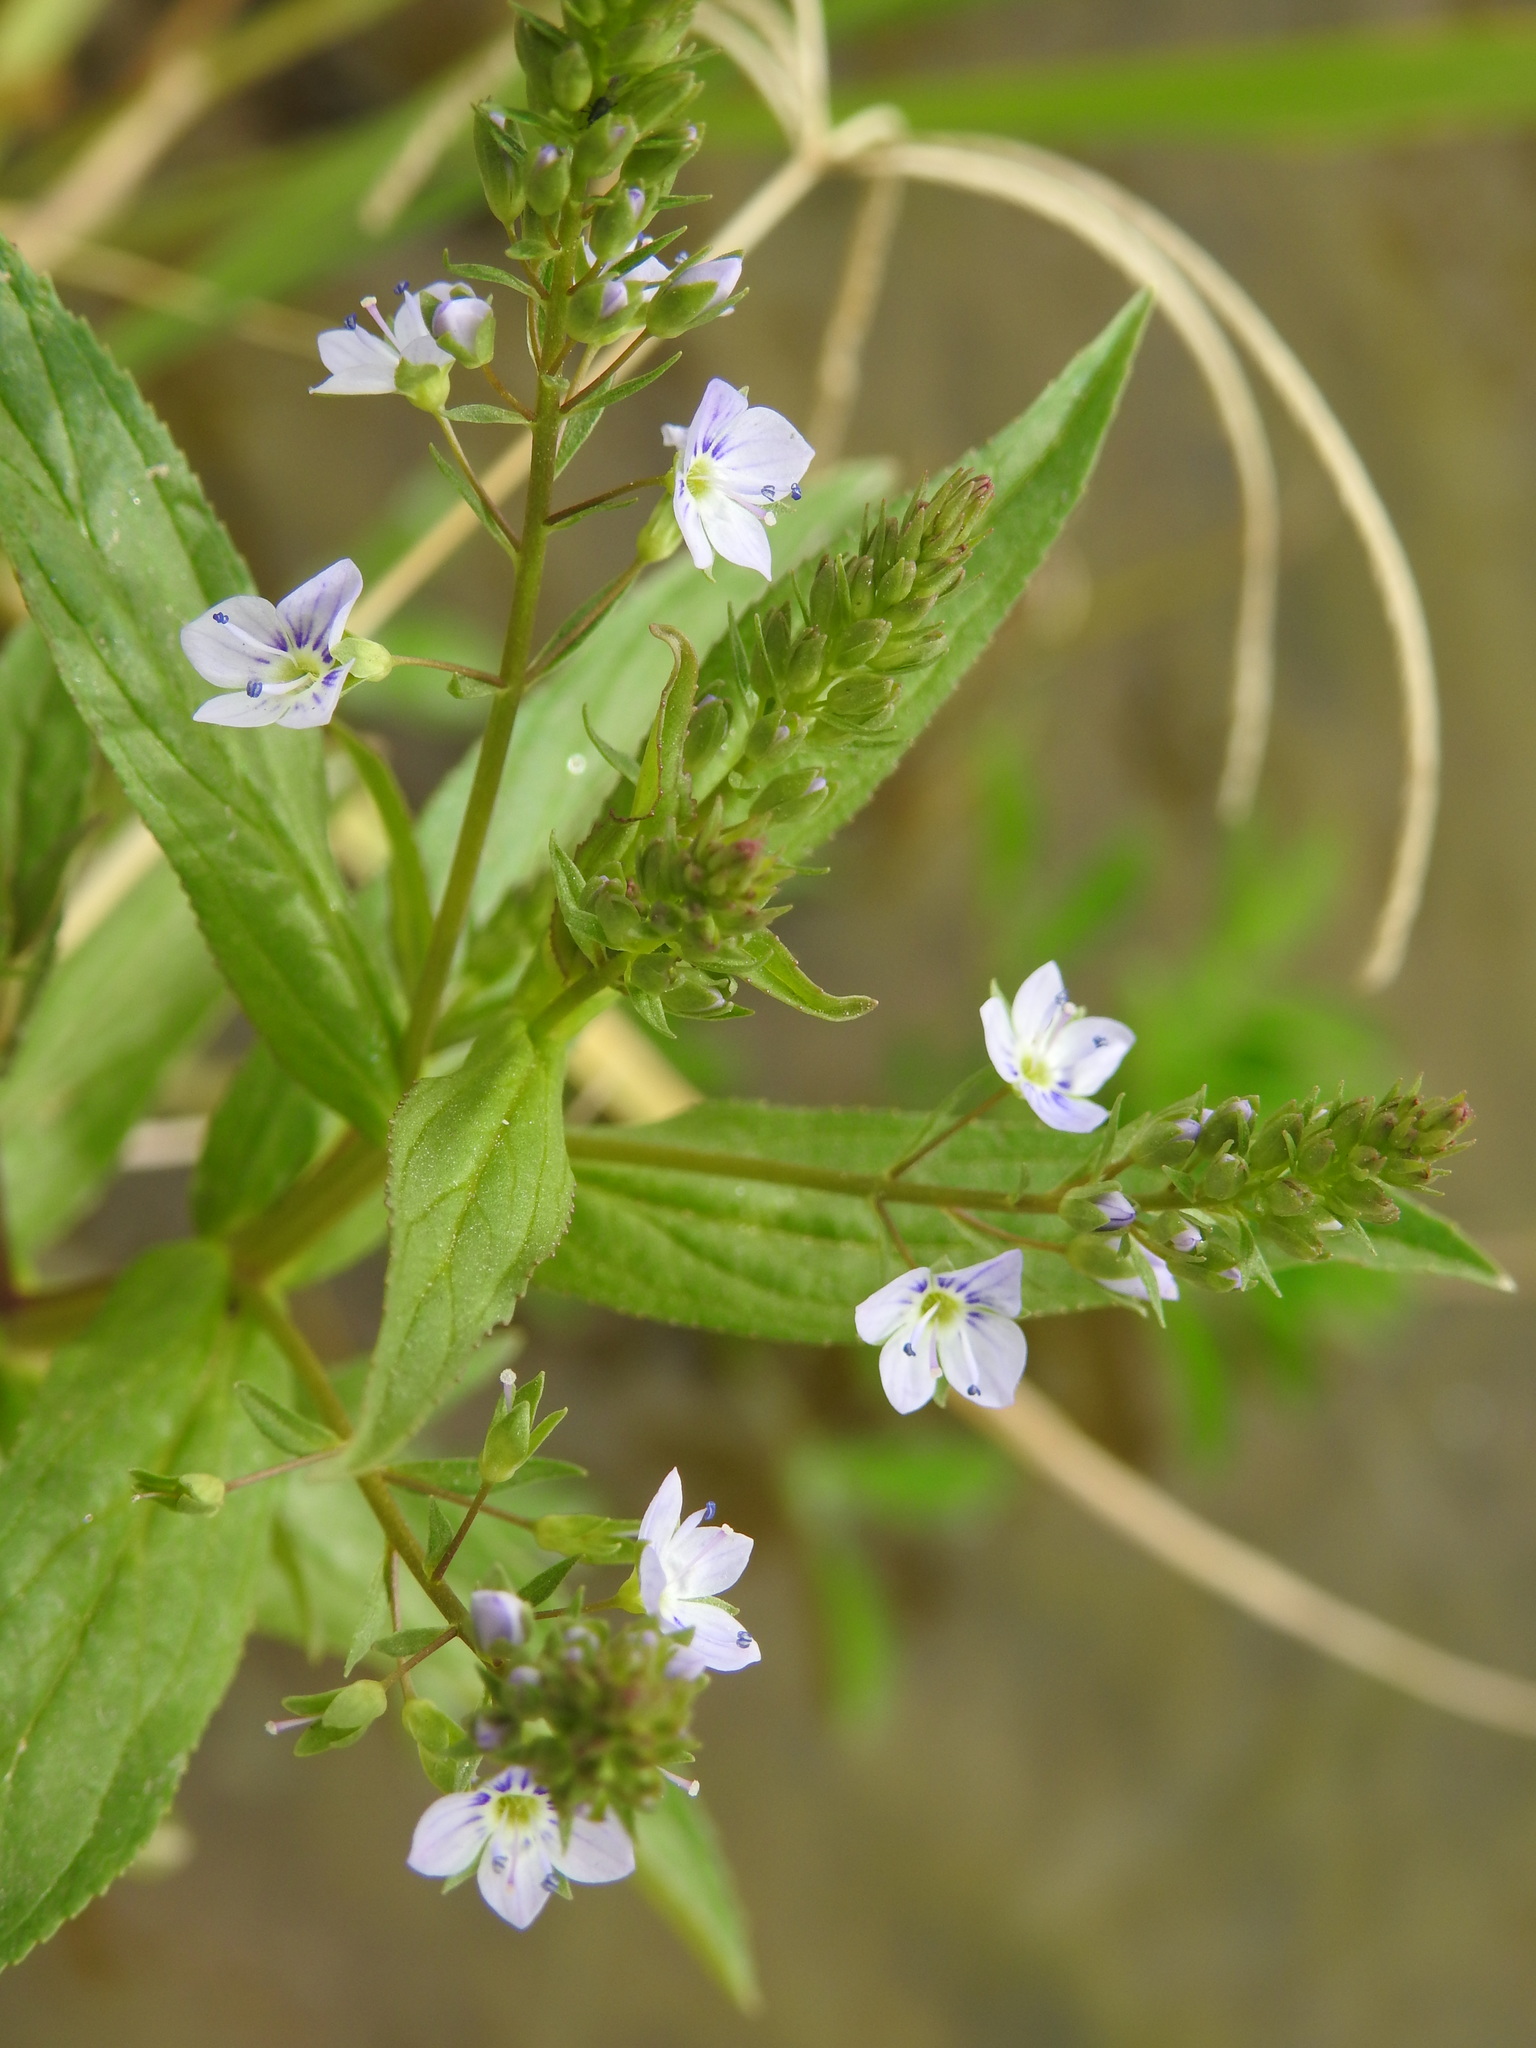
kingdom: Plantae
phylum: Tracheophyta
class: Magnoliopsida
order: Lamiales
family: Plantaginaceae
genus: Veronica
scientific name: Veronica anagallis-aquatica
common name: Water speedwell
